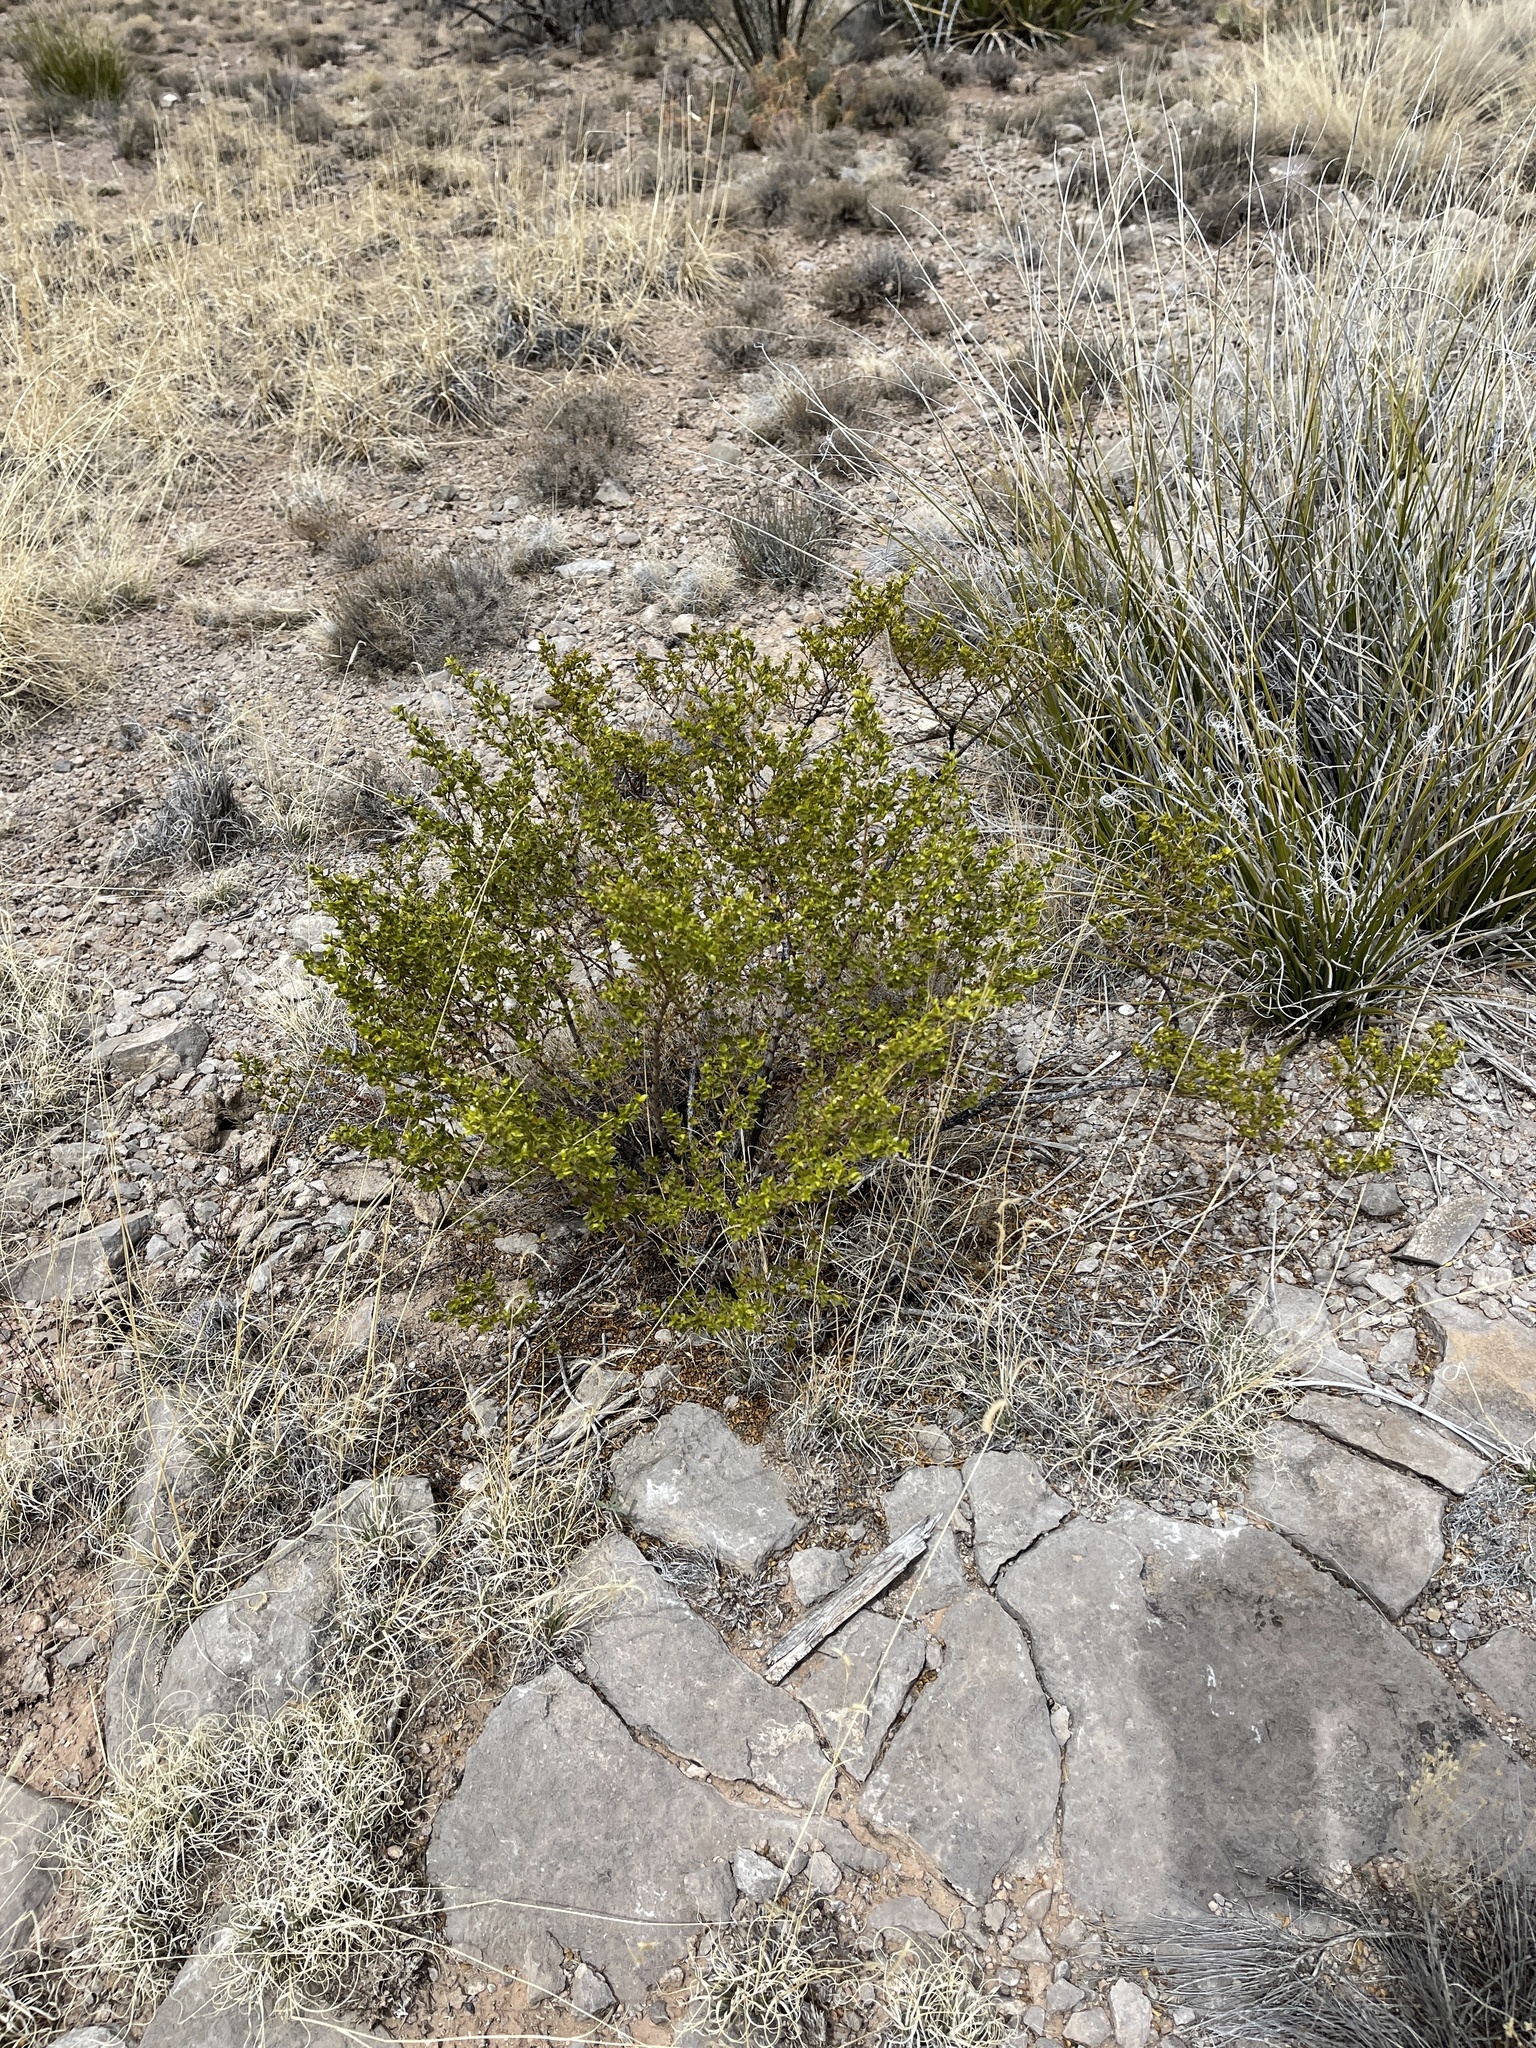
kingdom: Plantae
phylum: Tracheophyta
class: Magnoliopsida
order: Zygophyllales
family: Zygophyllaceae
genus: Larrea
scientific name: Larrea tridentata
